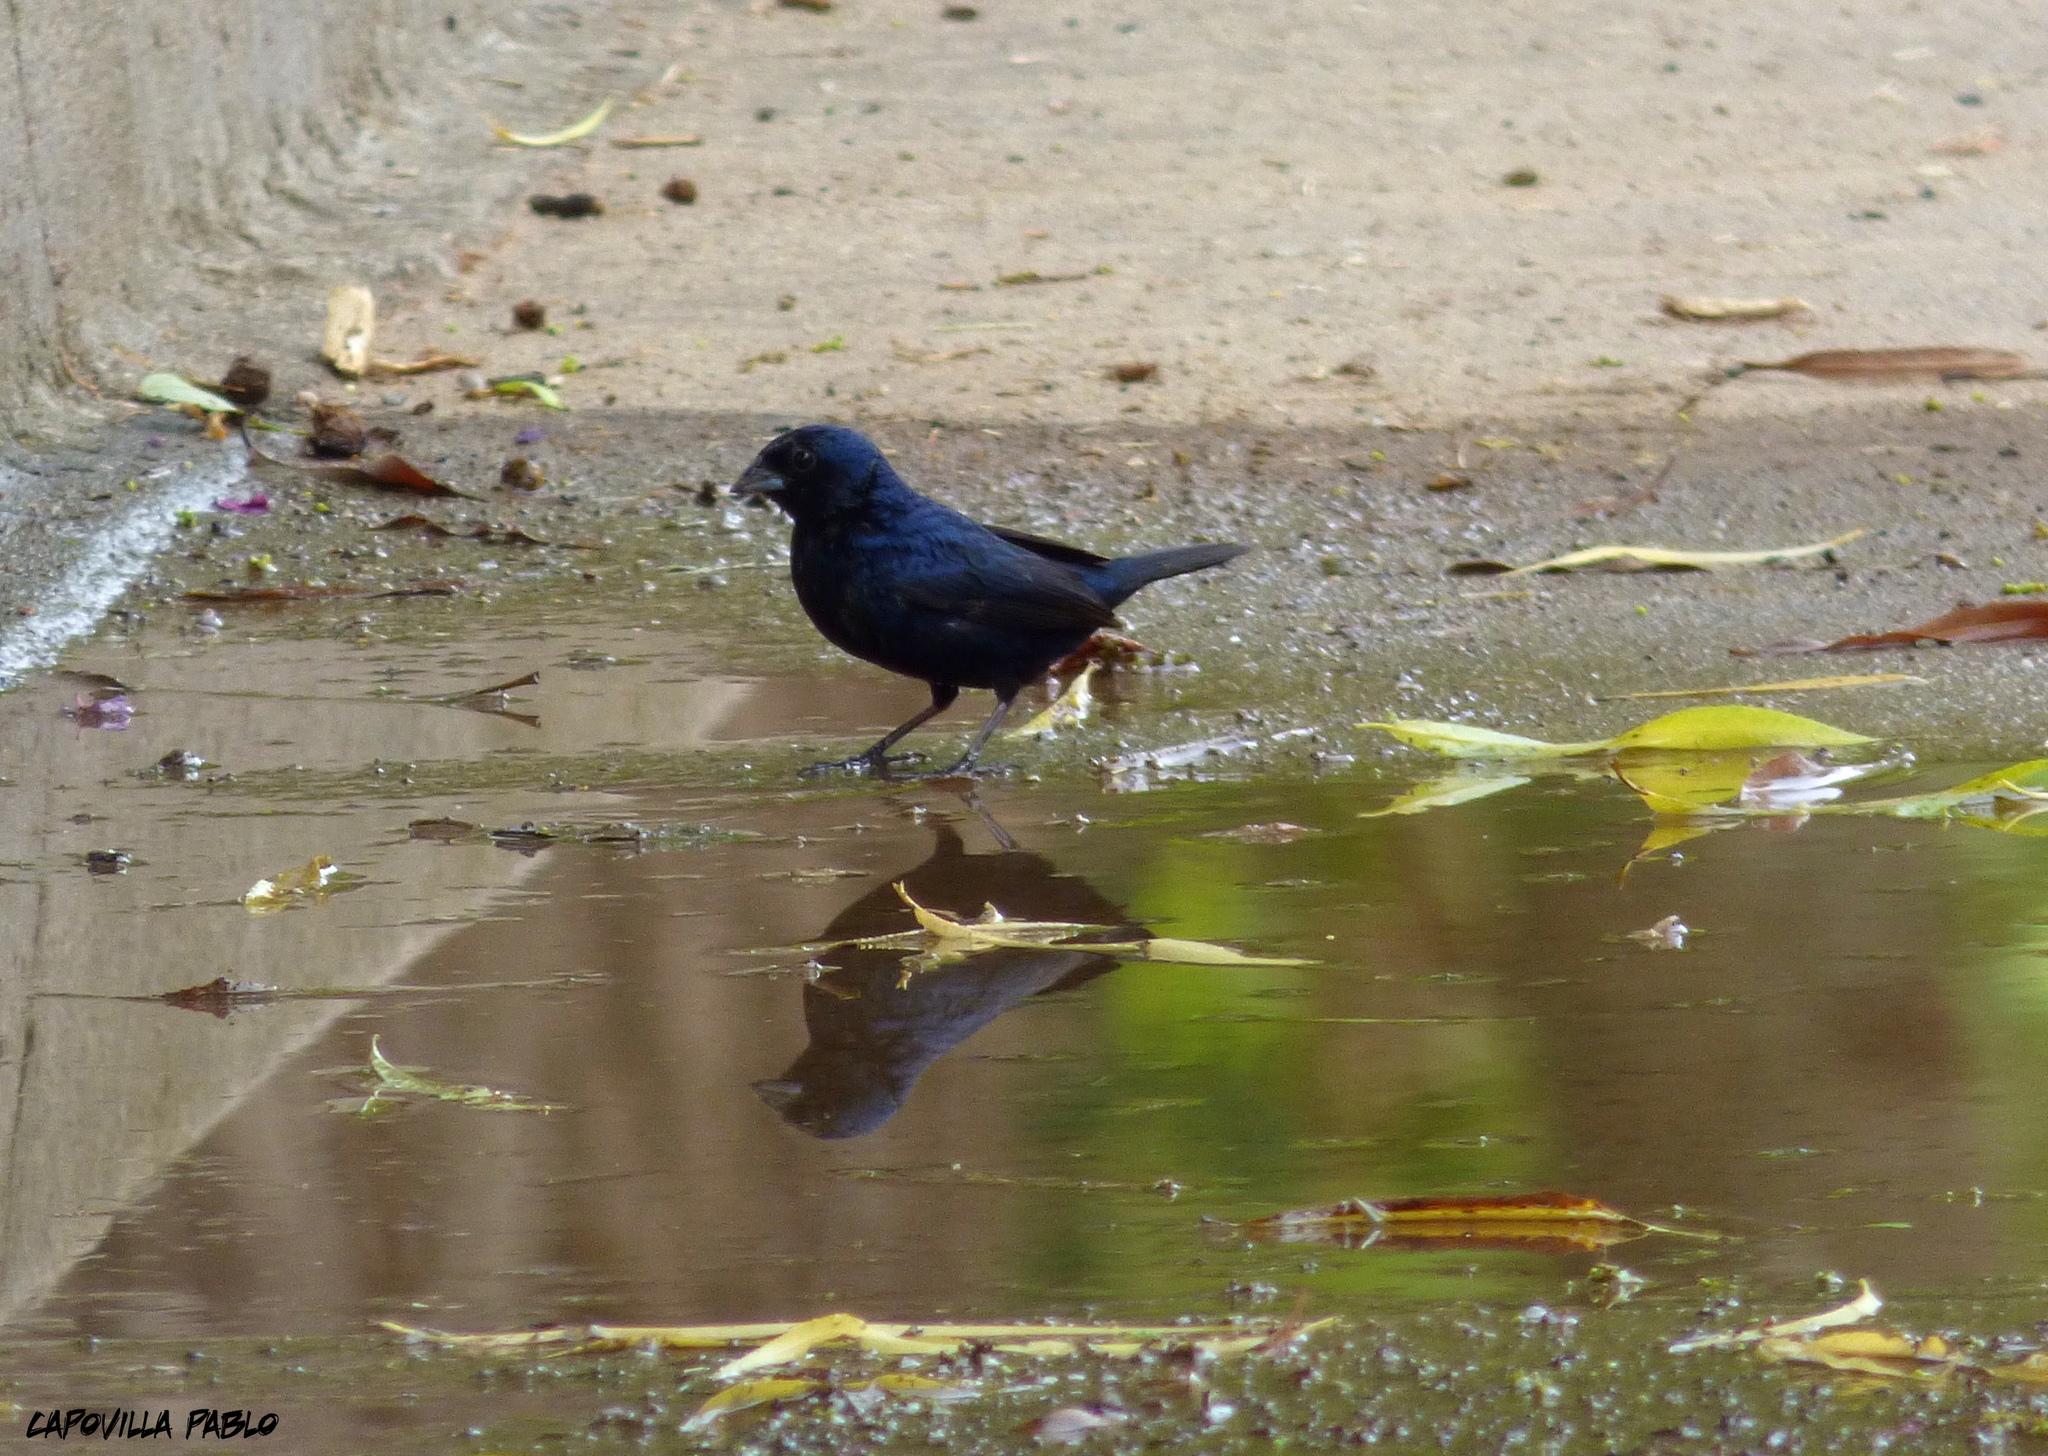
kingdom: Animalia
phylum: Chordata
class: Aves
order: Passeriformes
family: Thraupidae
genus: Volatinia
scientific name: Volatinia jacarina
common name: Blue-black grassquit
